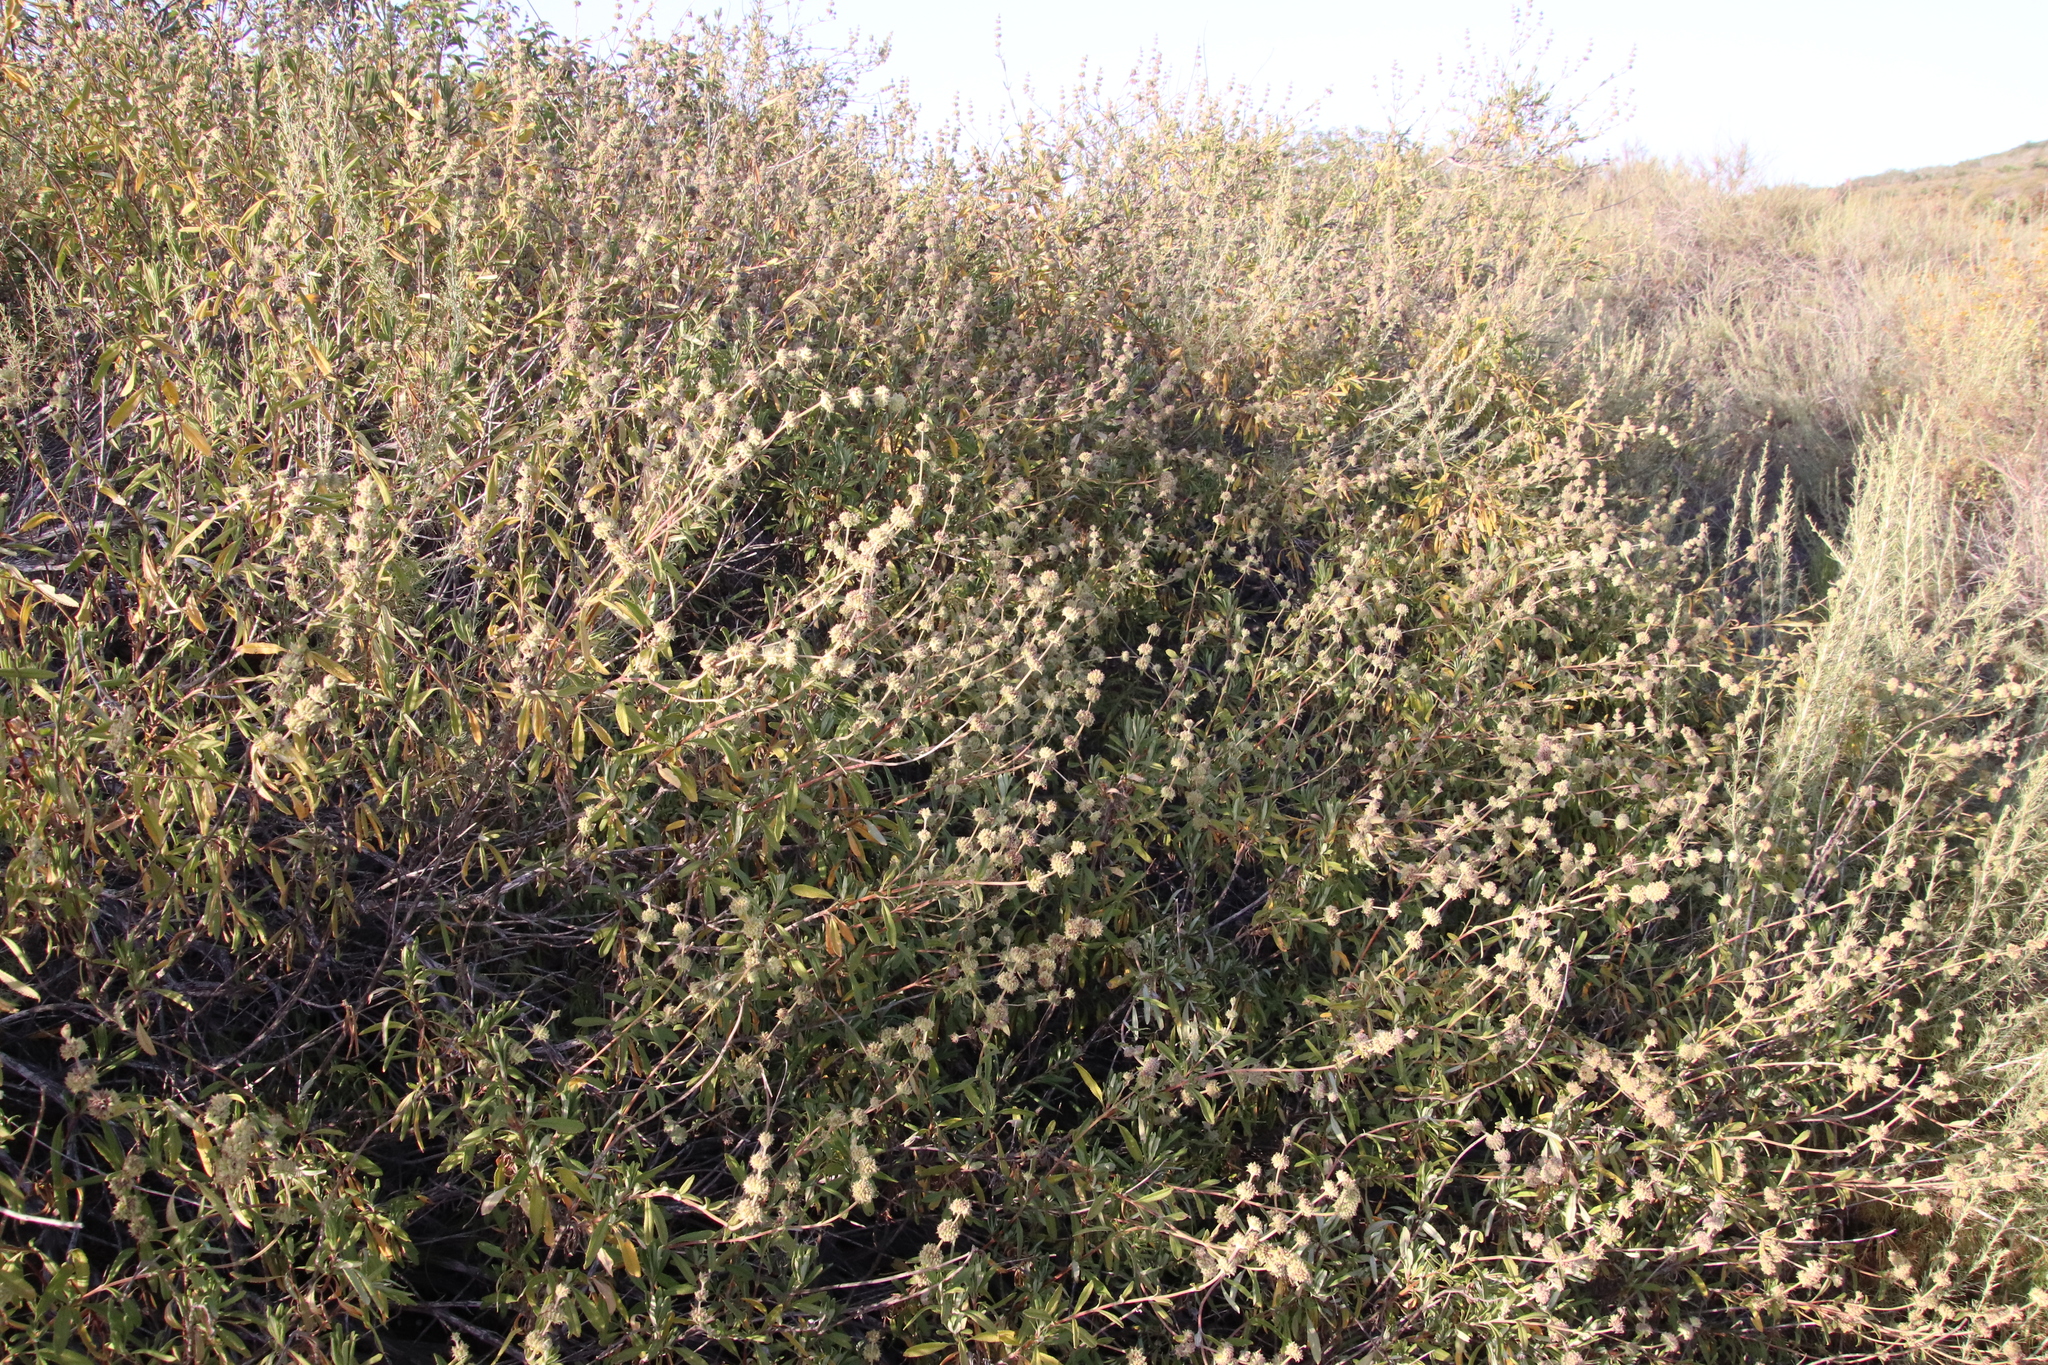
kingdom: Plantae
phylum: Tracheophyta
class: Magnoliopsida
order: Lamiales
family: Lamiaceae
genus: Salvia
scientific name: Salvia mellifera
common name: Black sage
